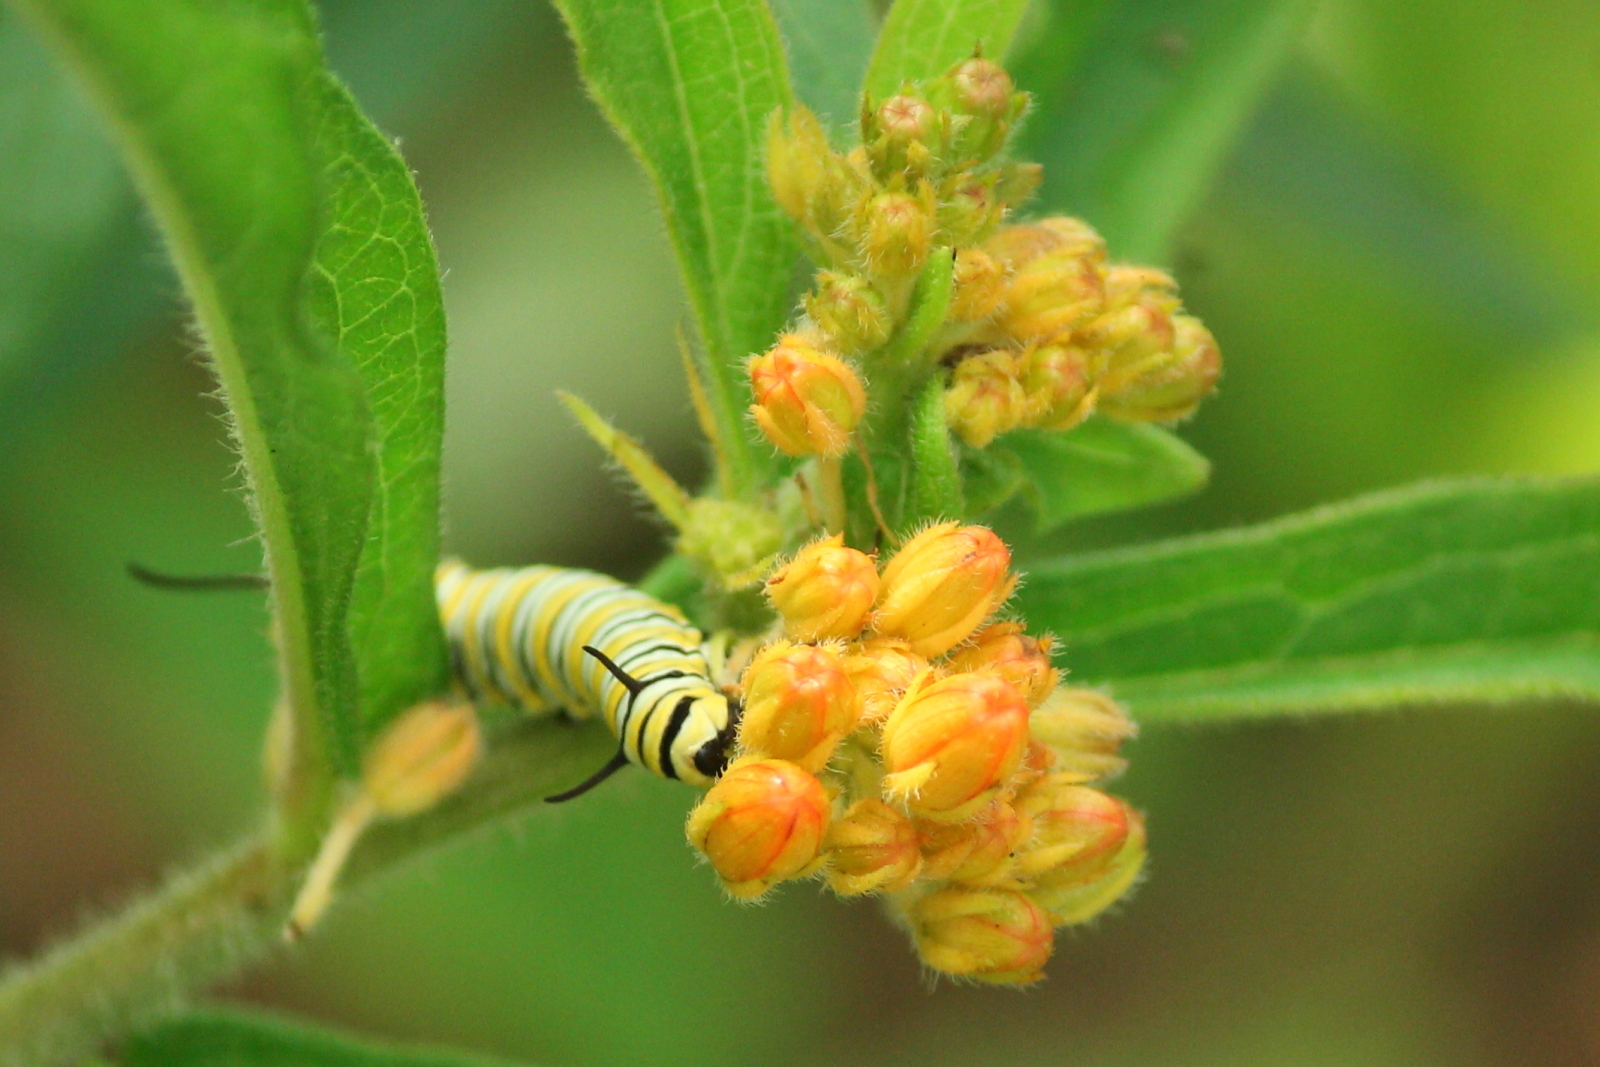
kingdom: Animalia
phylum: Arthropoda
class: Insecta
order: Lepidoptera
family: Nymphalidae
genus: Danaus
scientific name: Danaus plexippus
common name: Monarch
